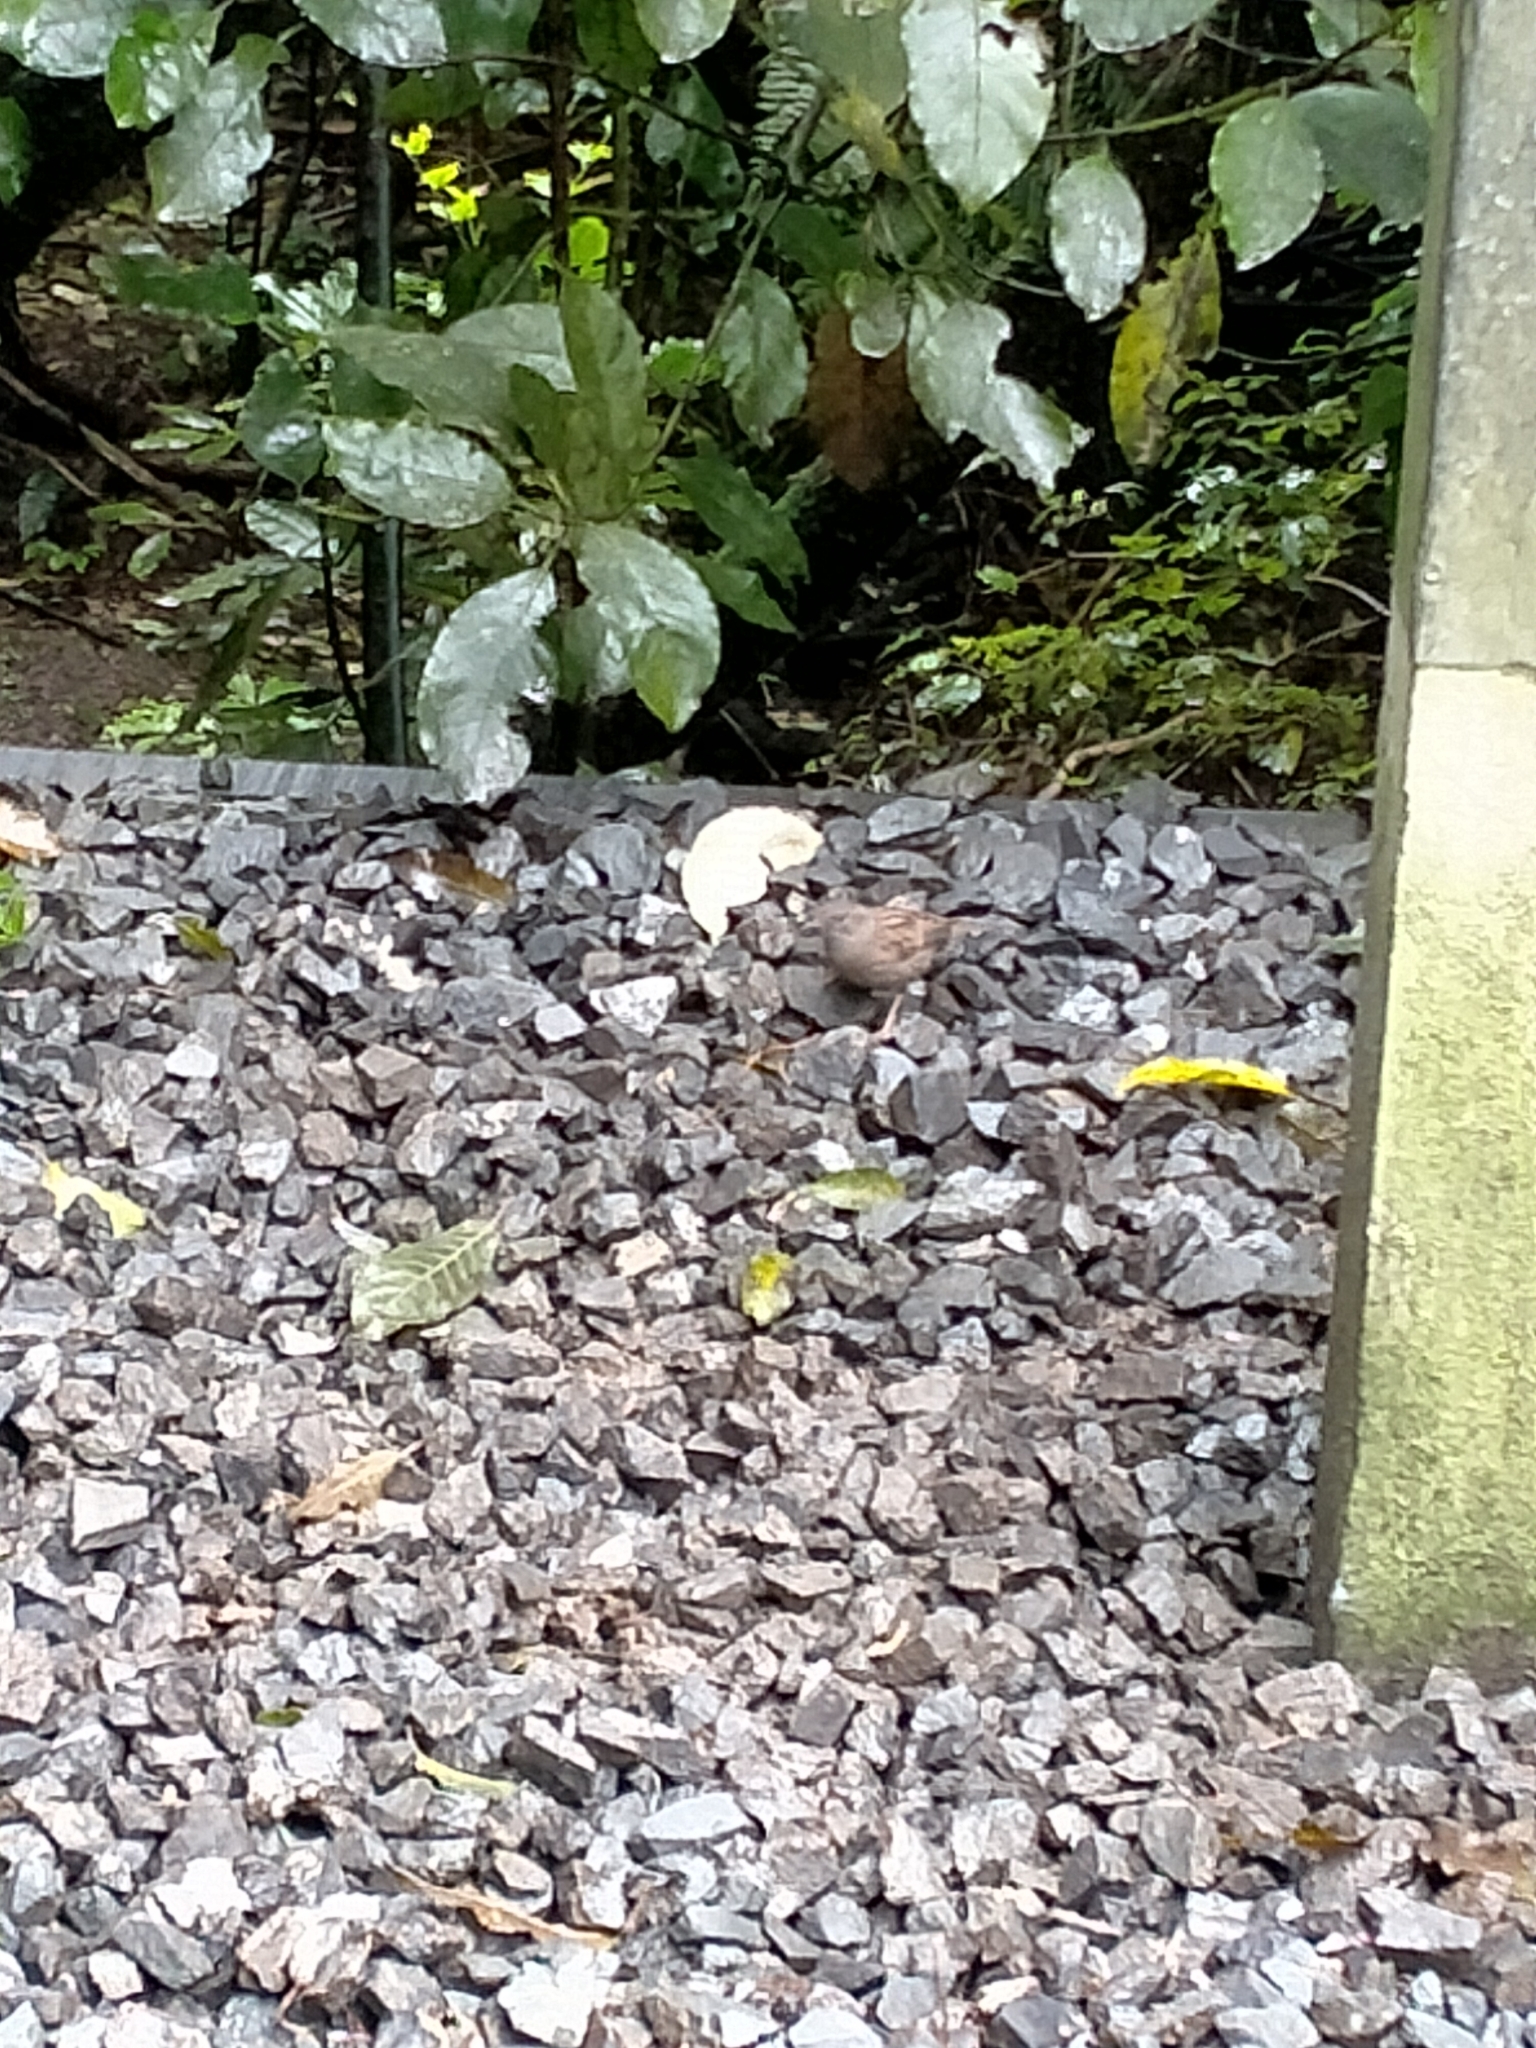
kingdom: Animalia
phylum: Chordata
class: Aves
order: Passeriformes
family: Prunellidae
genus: Prunella
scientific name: Prunella modularis
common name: Dunnock
